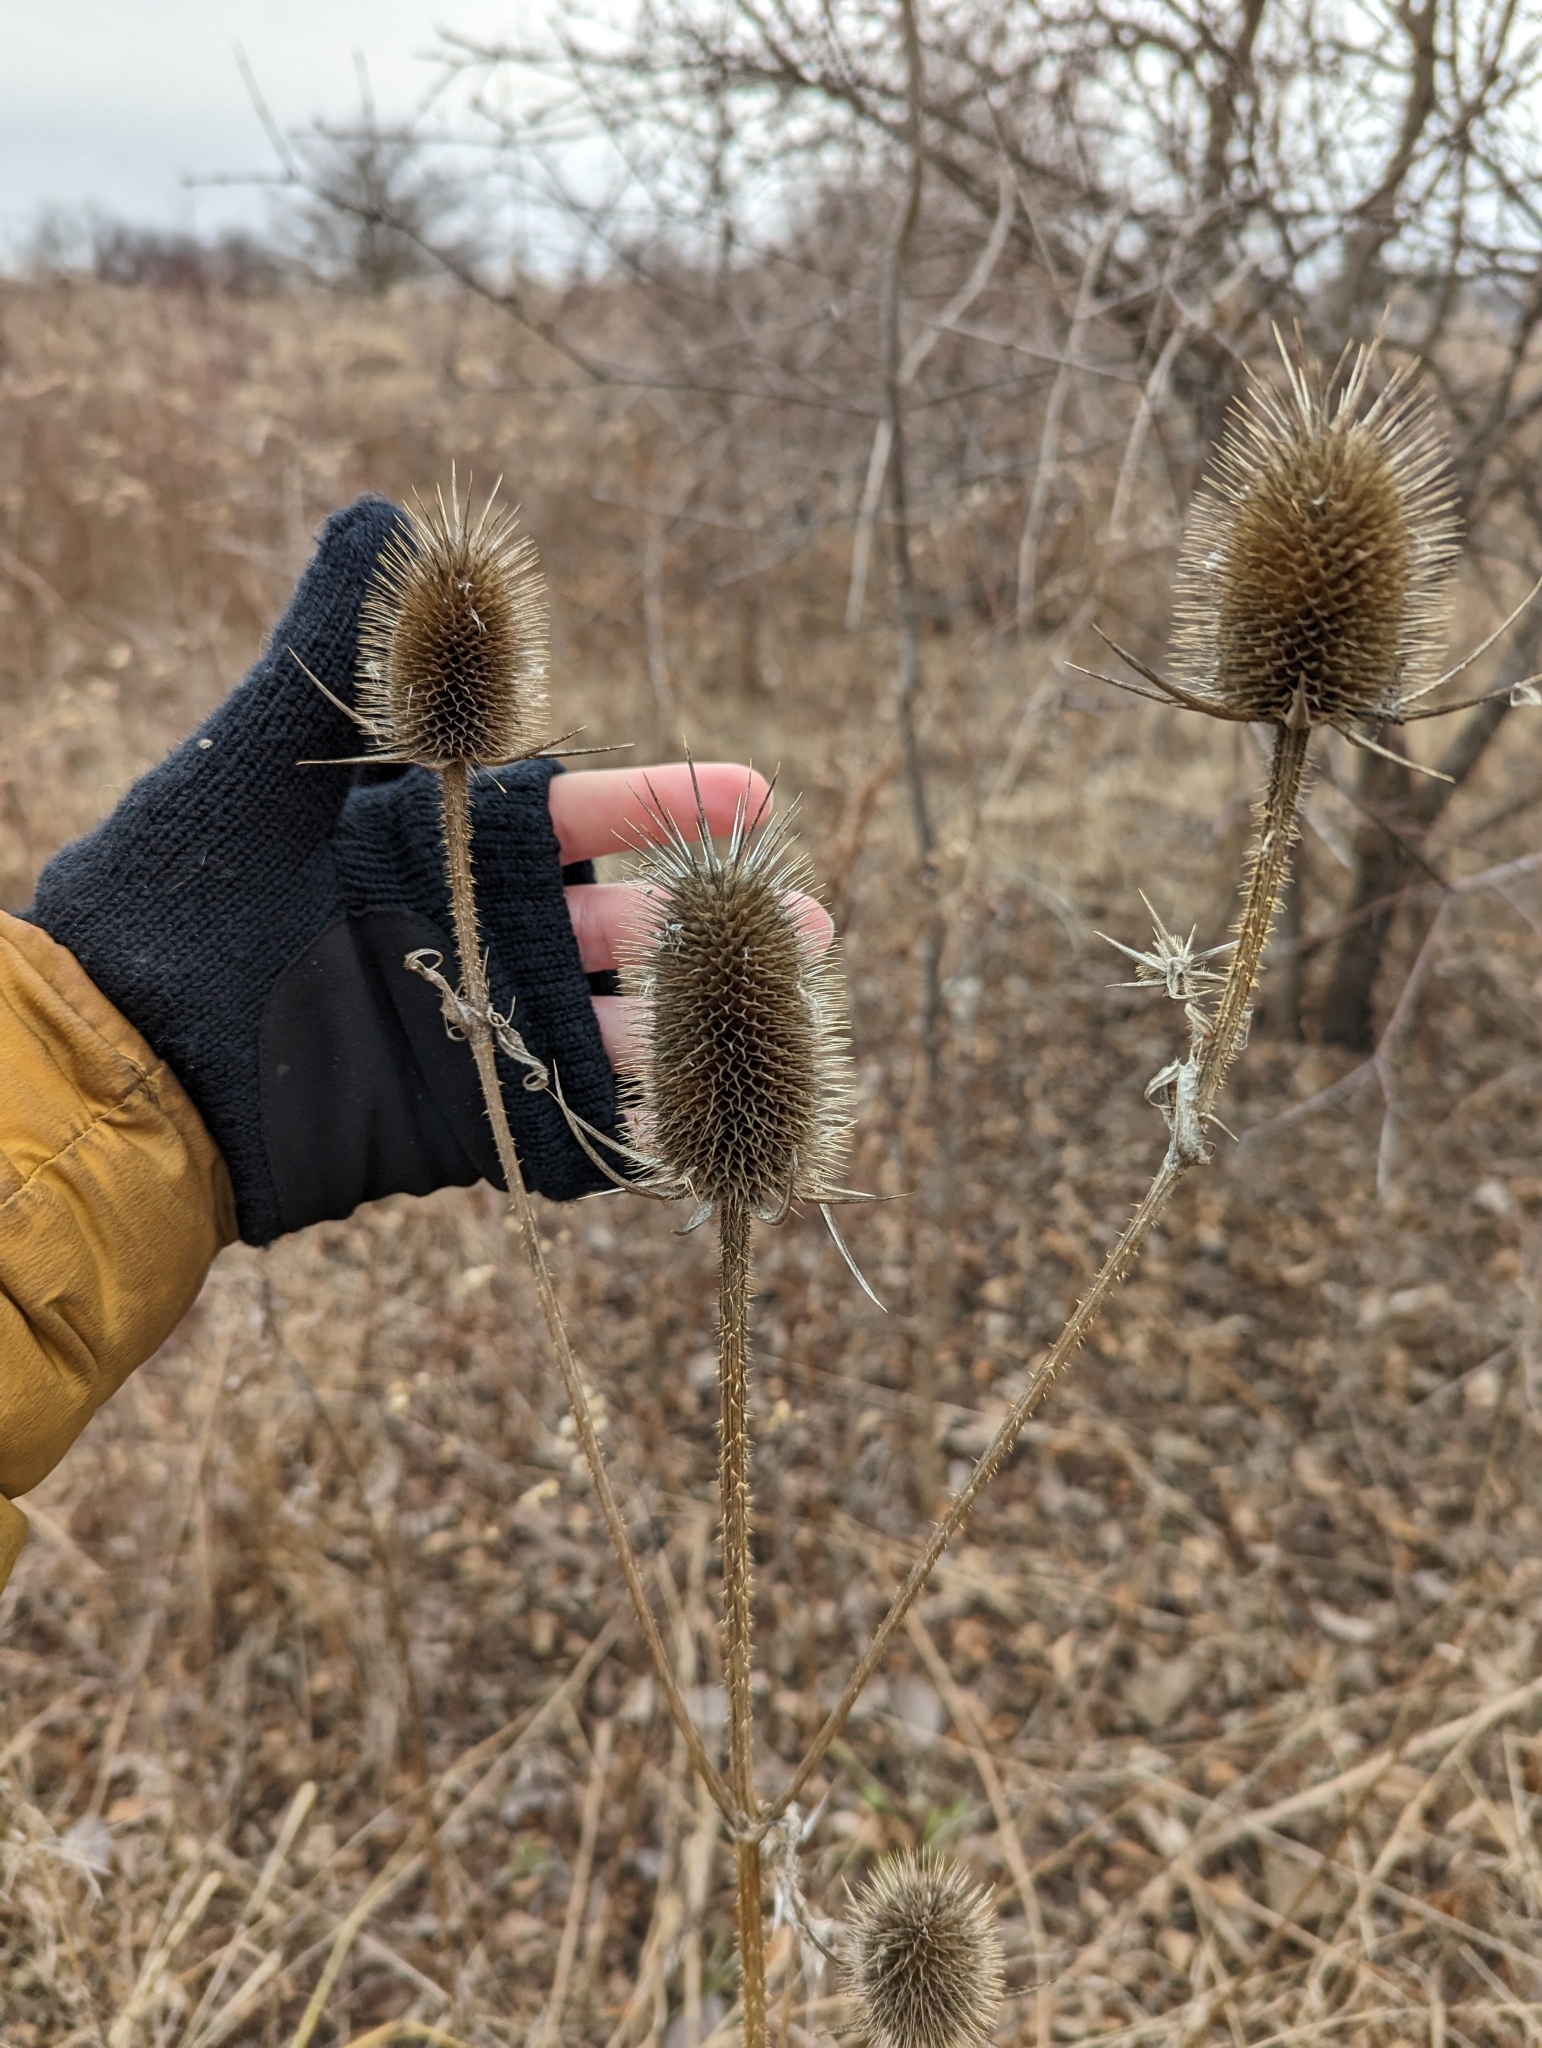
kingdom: Plantae
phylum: Tracheophyta
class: Magnoliopsida
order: Dipsacales
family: Caprifoliaceae
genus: Dipsacus
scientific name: Dipsacus laciniatus
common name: Cut-leaved teasel
